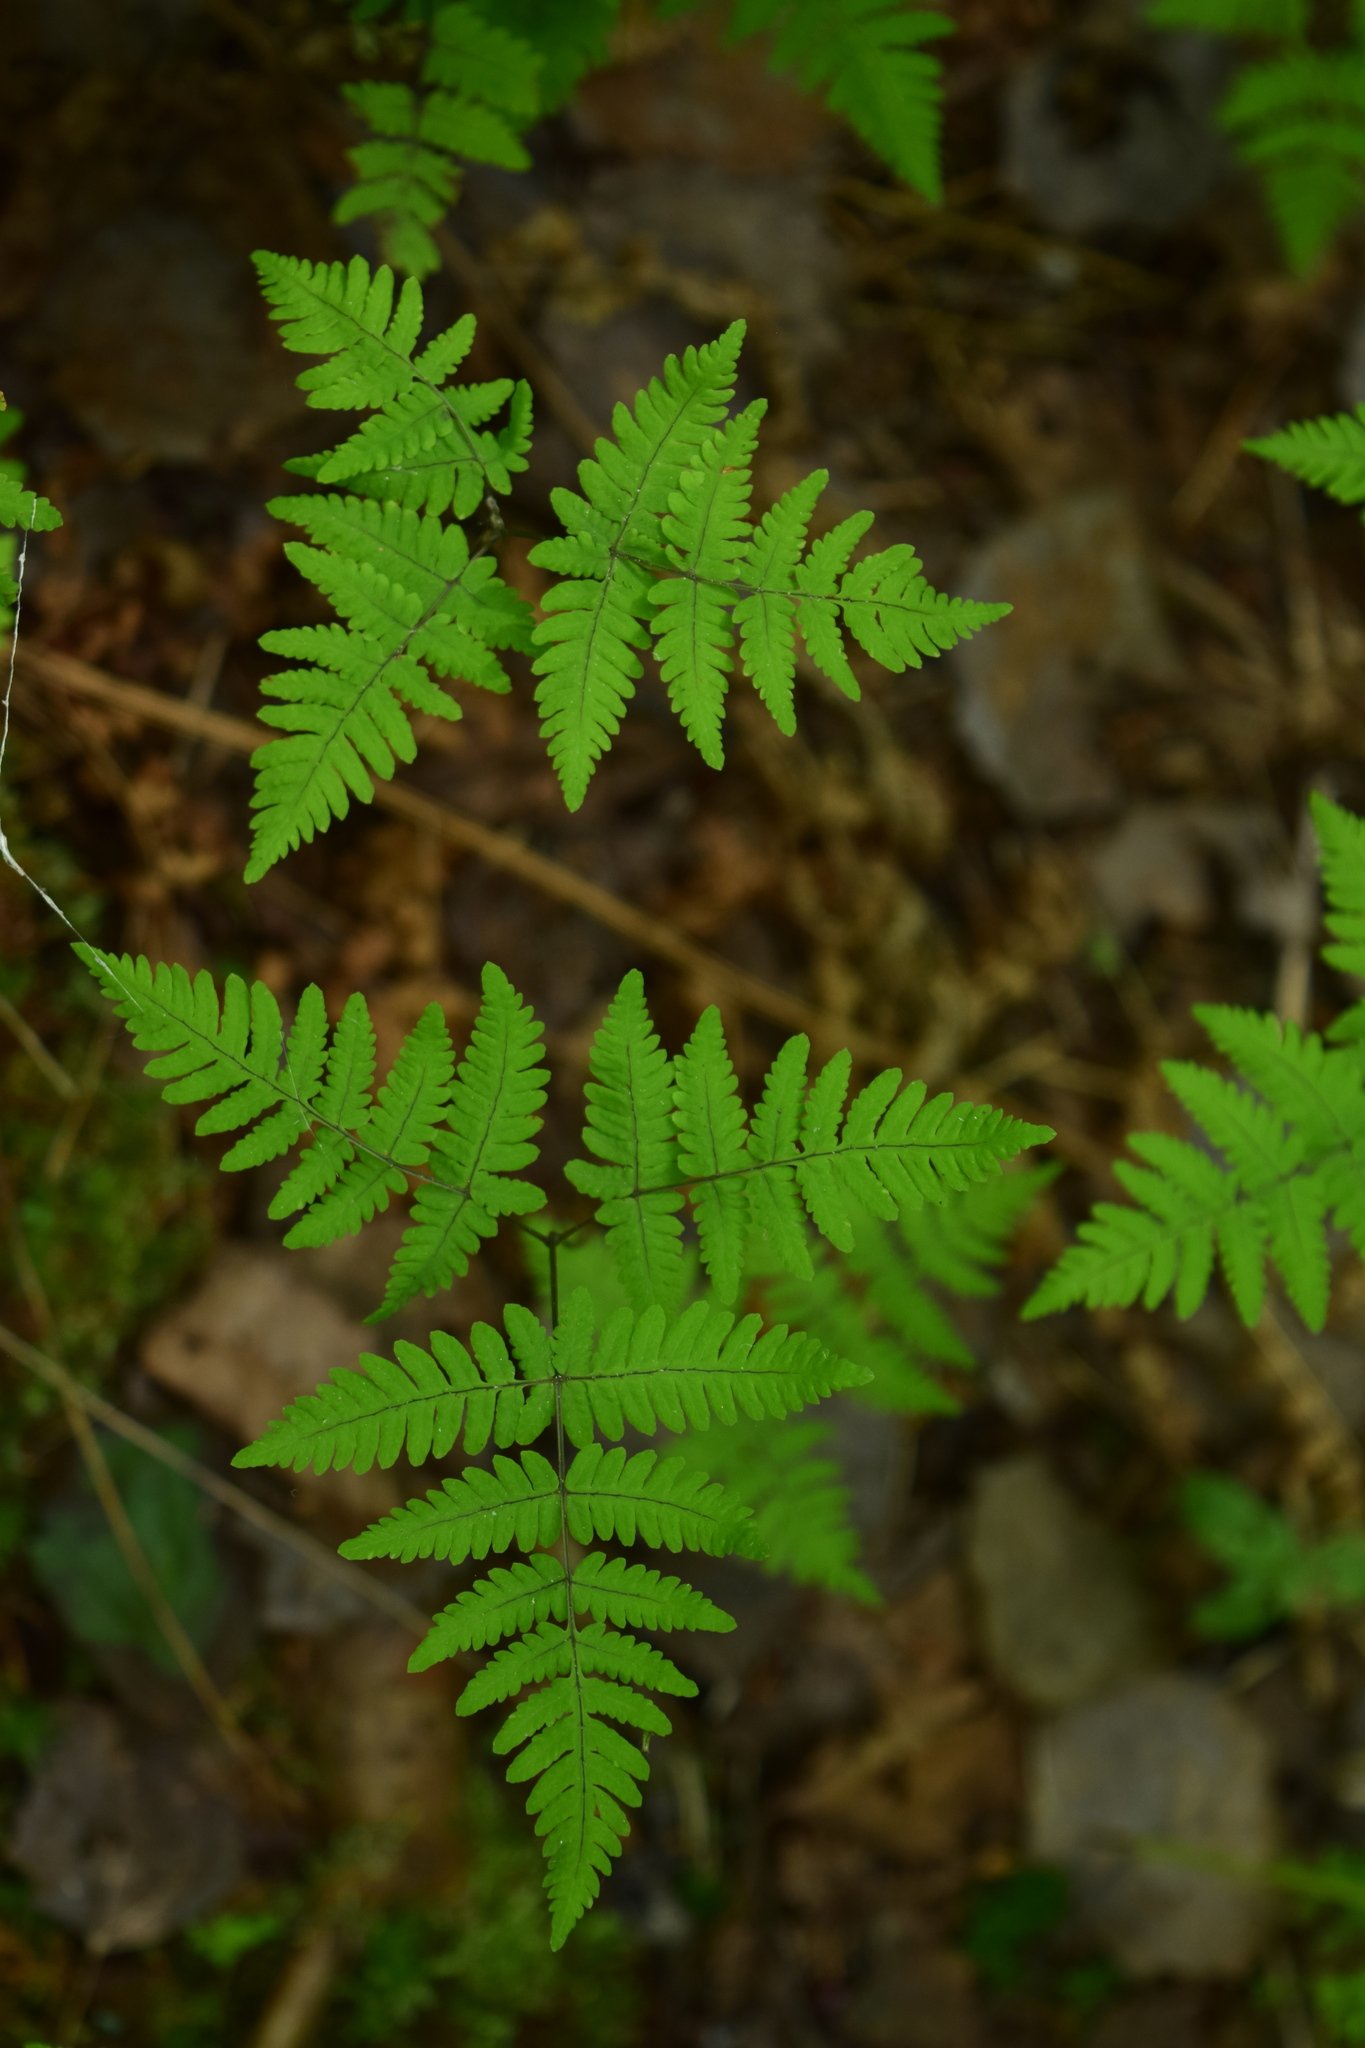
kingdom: Plantae
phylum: Tracheophyta
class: Polypodiopsida
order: Polypodiales
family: Cystopteridaceae
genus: Gymnocarpium
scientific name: Gymnocarpium dryopteris
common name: Oak fern
